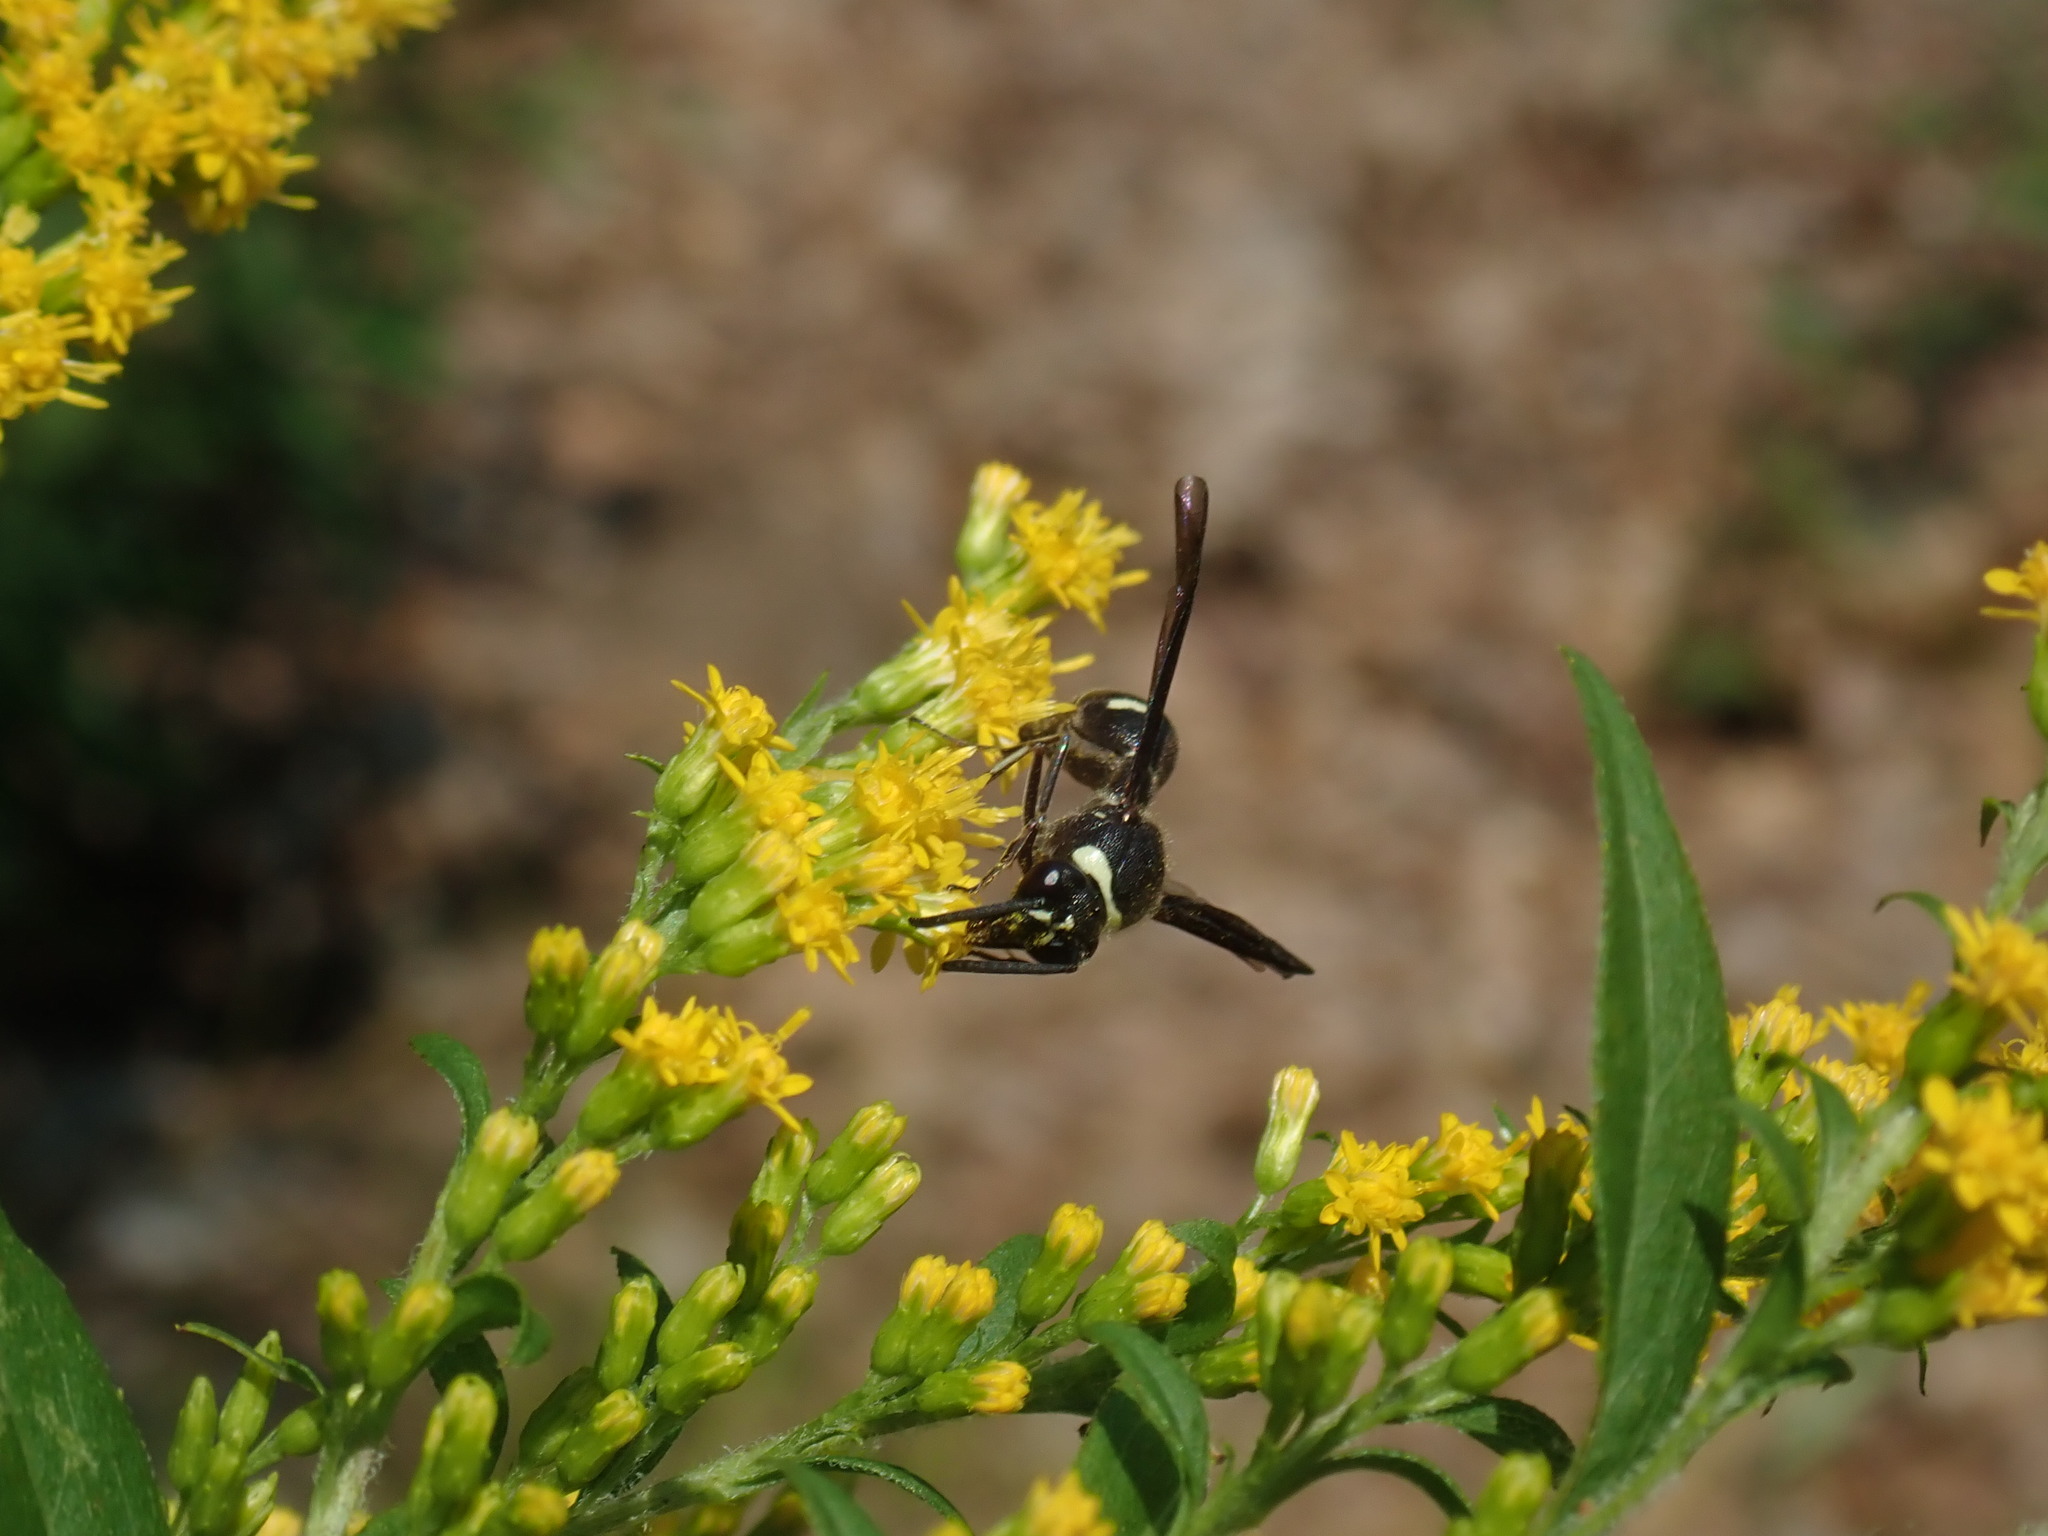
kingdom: Animalia
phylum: Arthropoda
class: Insecta
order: Hymenoptera
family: Vespidae
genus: Eumenes
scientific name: Eumenes fraternus
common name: Fraternal potter wasp
